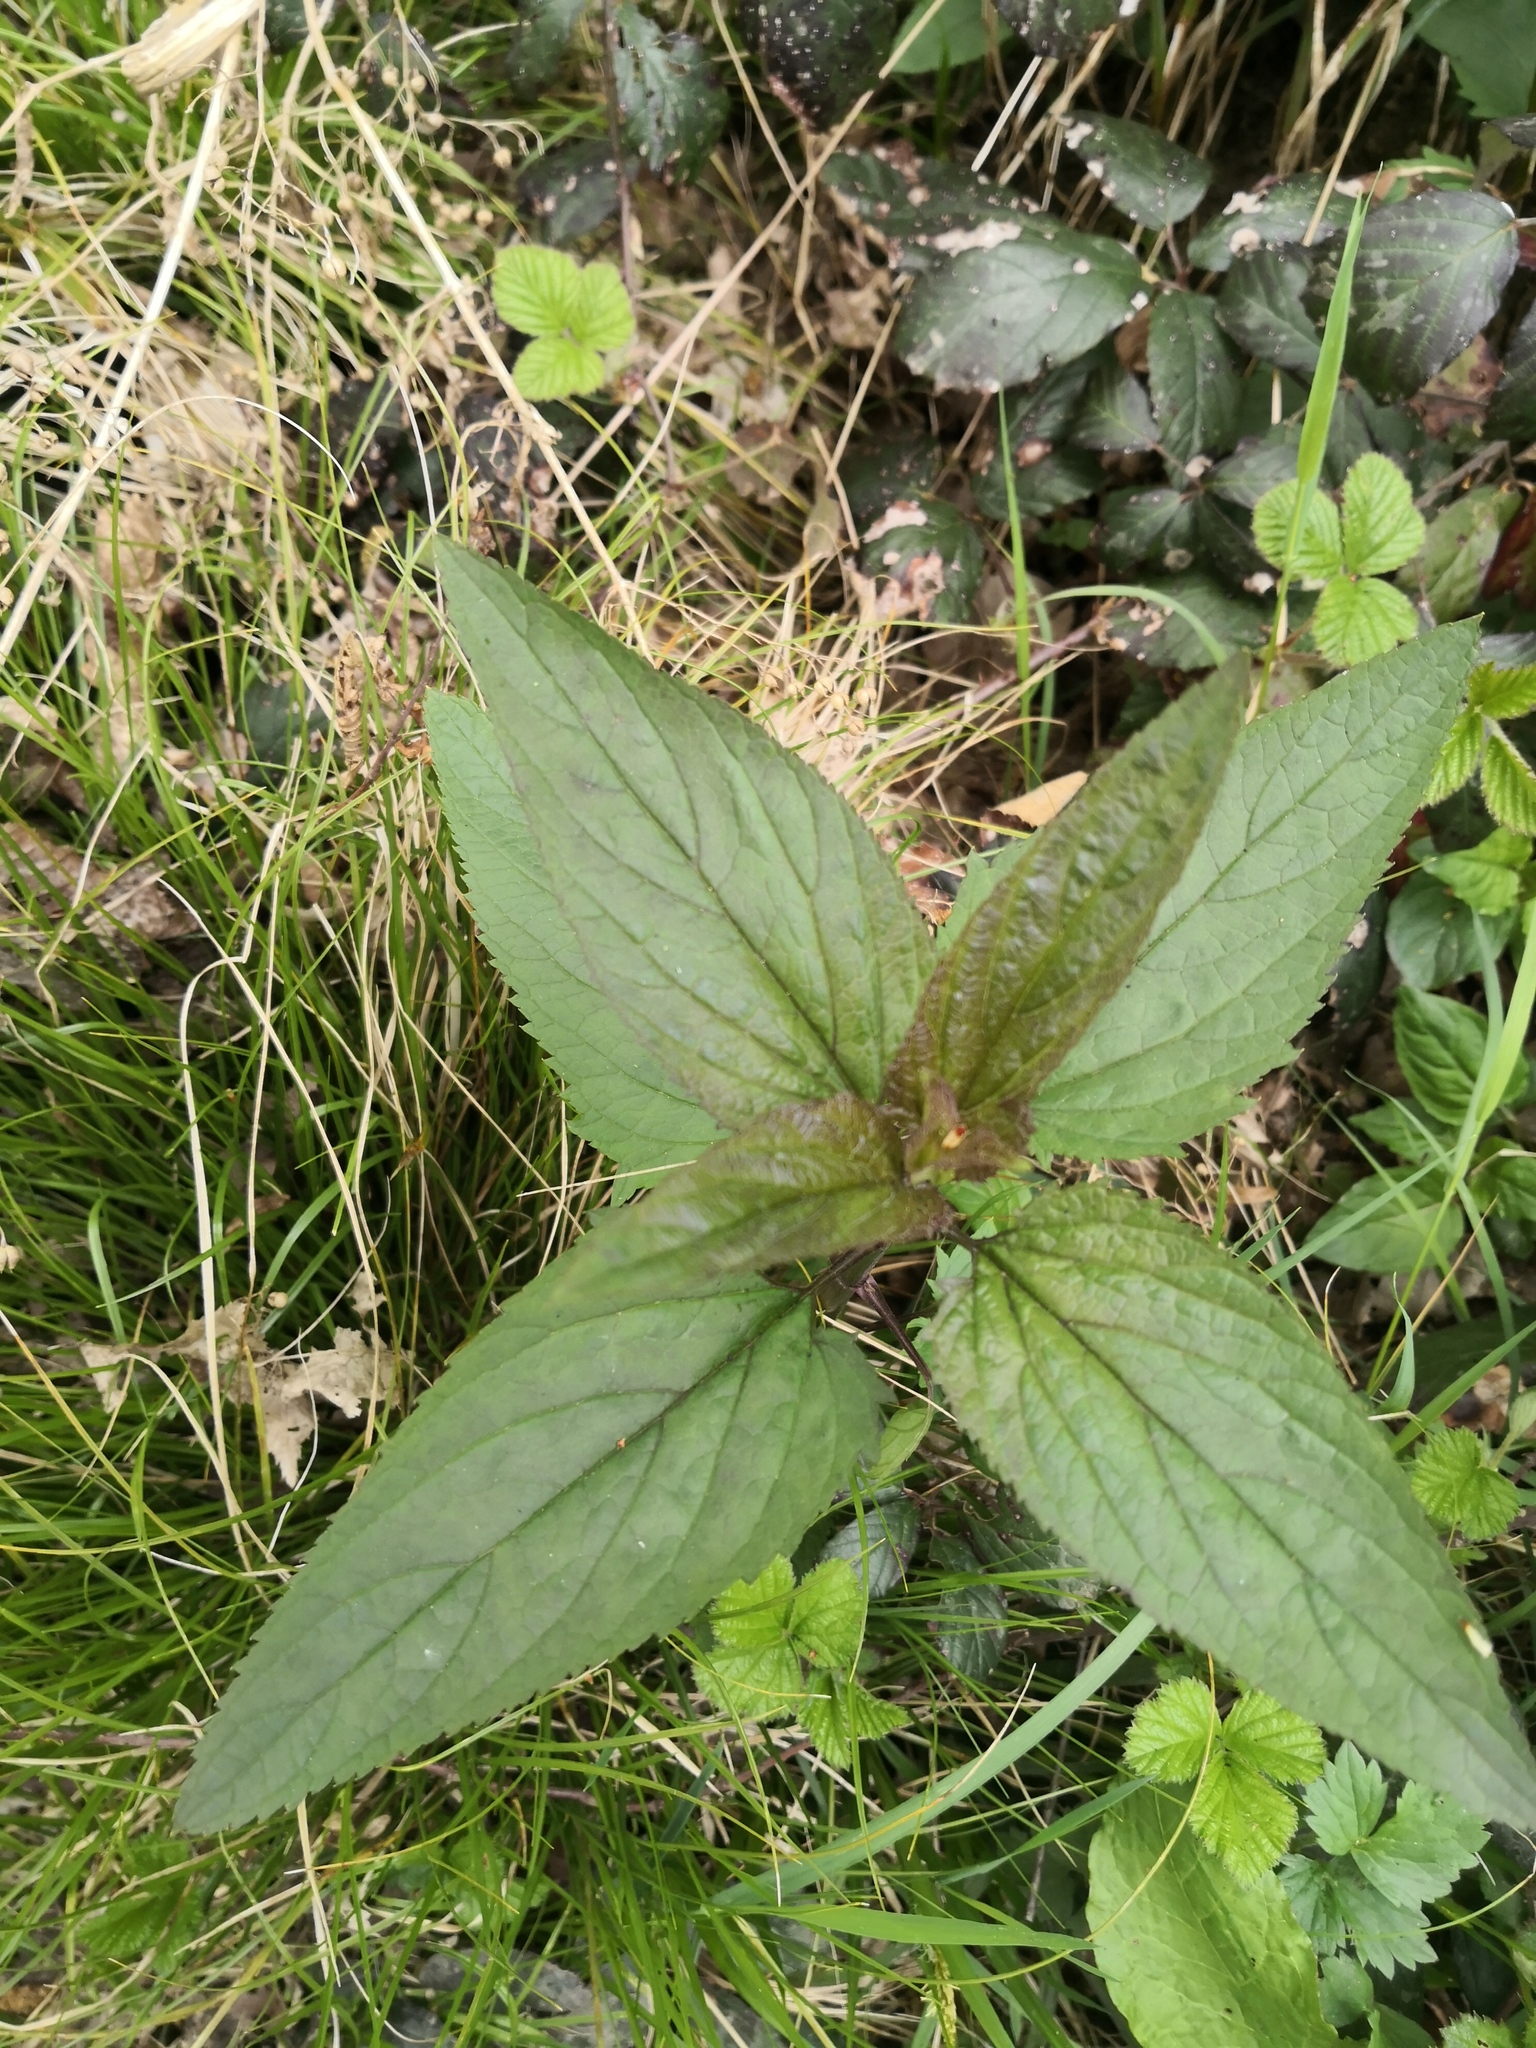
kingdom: Plantae
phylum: Tracheophyta
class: Magnoliopsida
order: Lamiales
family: Scrophulariaceae
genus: Scrophularia
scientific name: Scrophularia nodosa
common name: Common figwort
